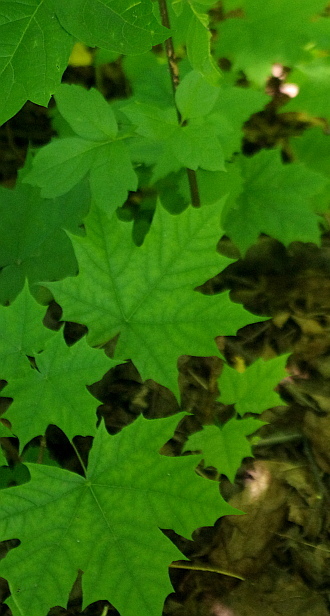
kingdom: Plantae
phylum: Tracheophyta
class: Magnoliopsida
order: Sapindales
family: Sapindaceae
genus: Acer
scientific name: Acer platanoides
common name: Norway maple
